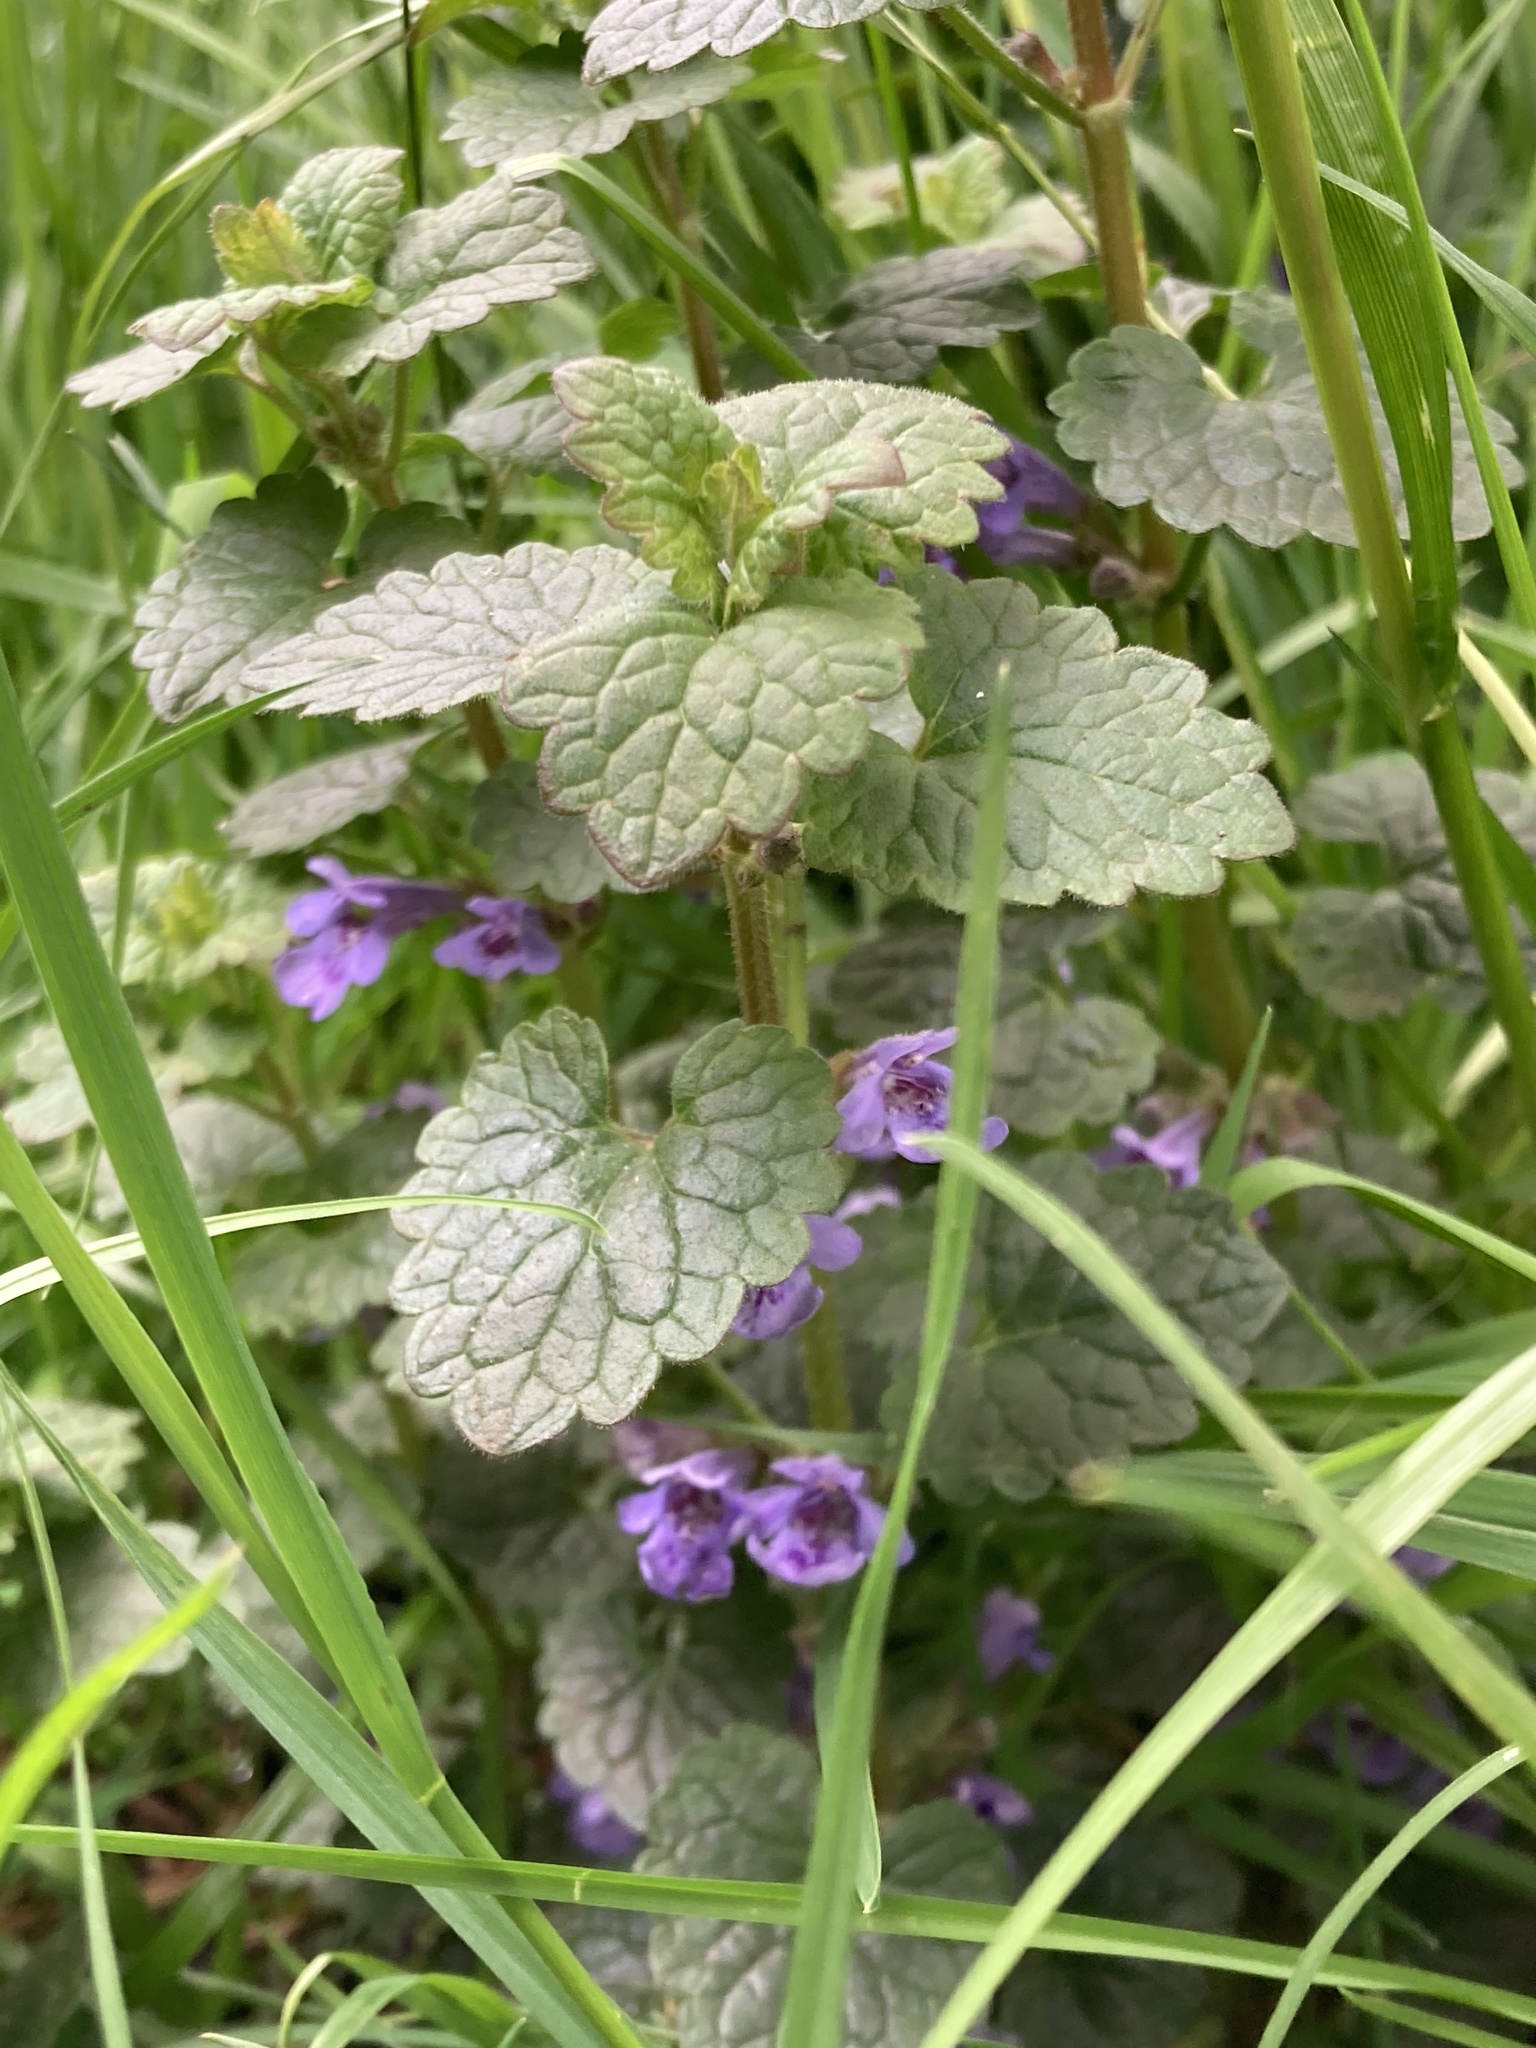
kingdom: Plantae
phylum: Tracheophyta
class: Magnoliopsida
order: Lamiales
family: Lamiaceae
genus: Glechoma
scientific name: Glechoma hederacea
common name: Ground ivy
